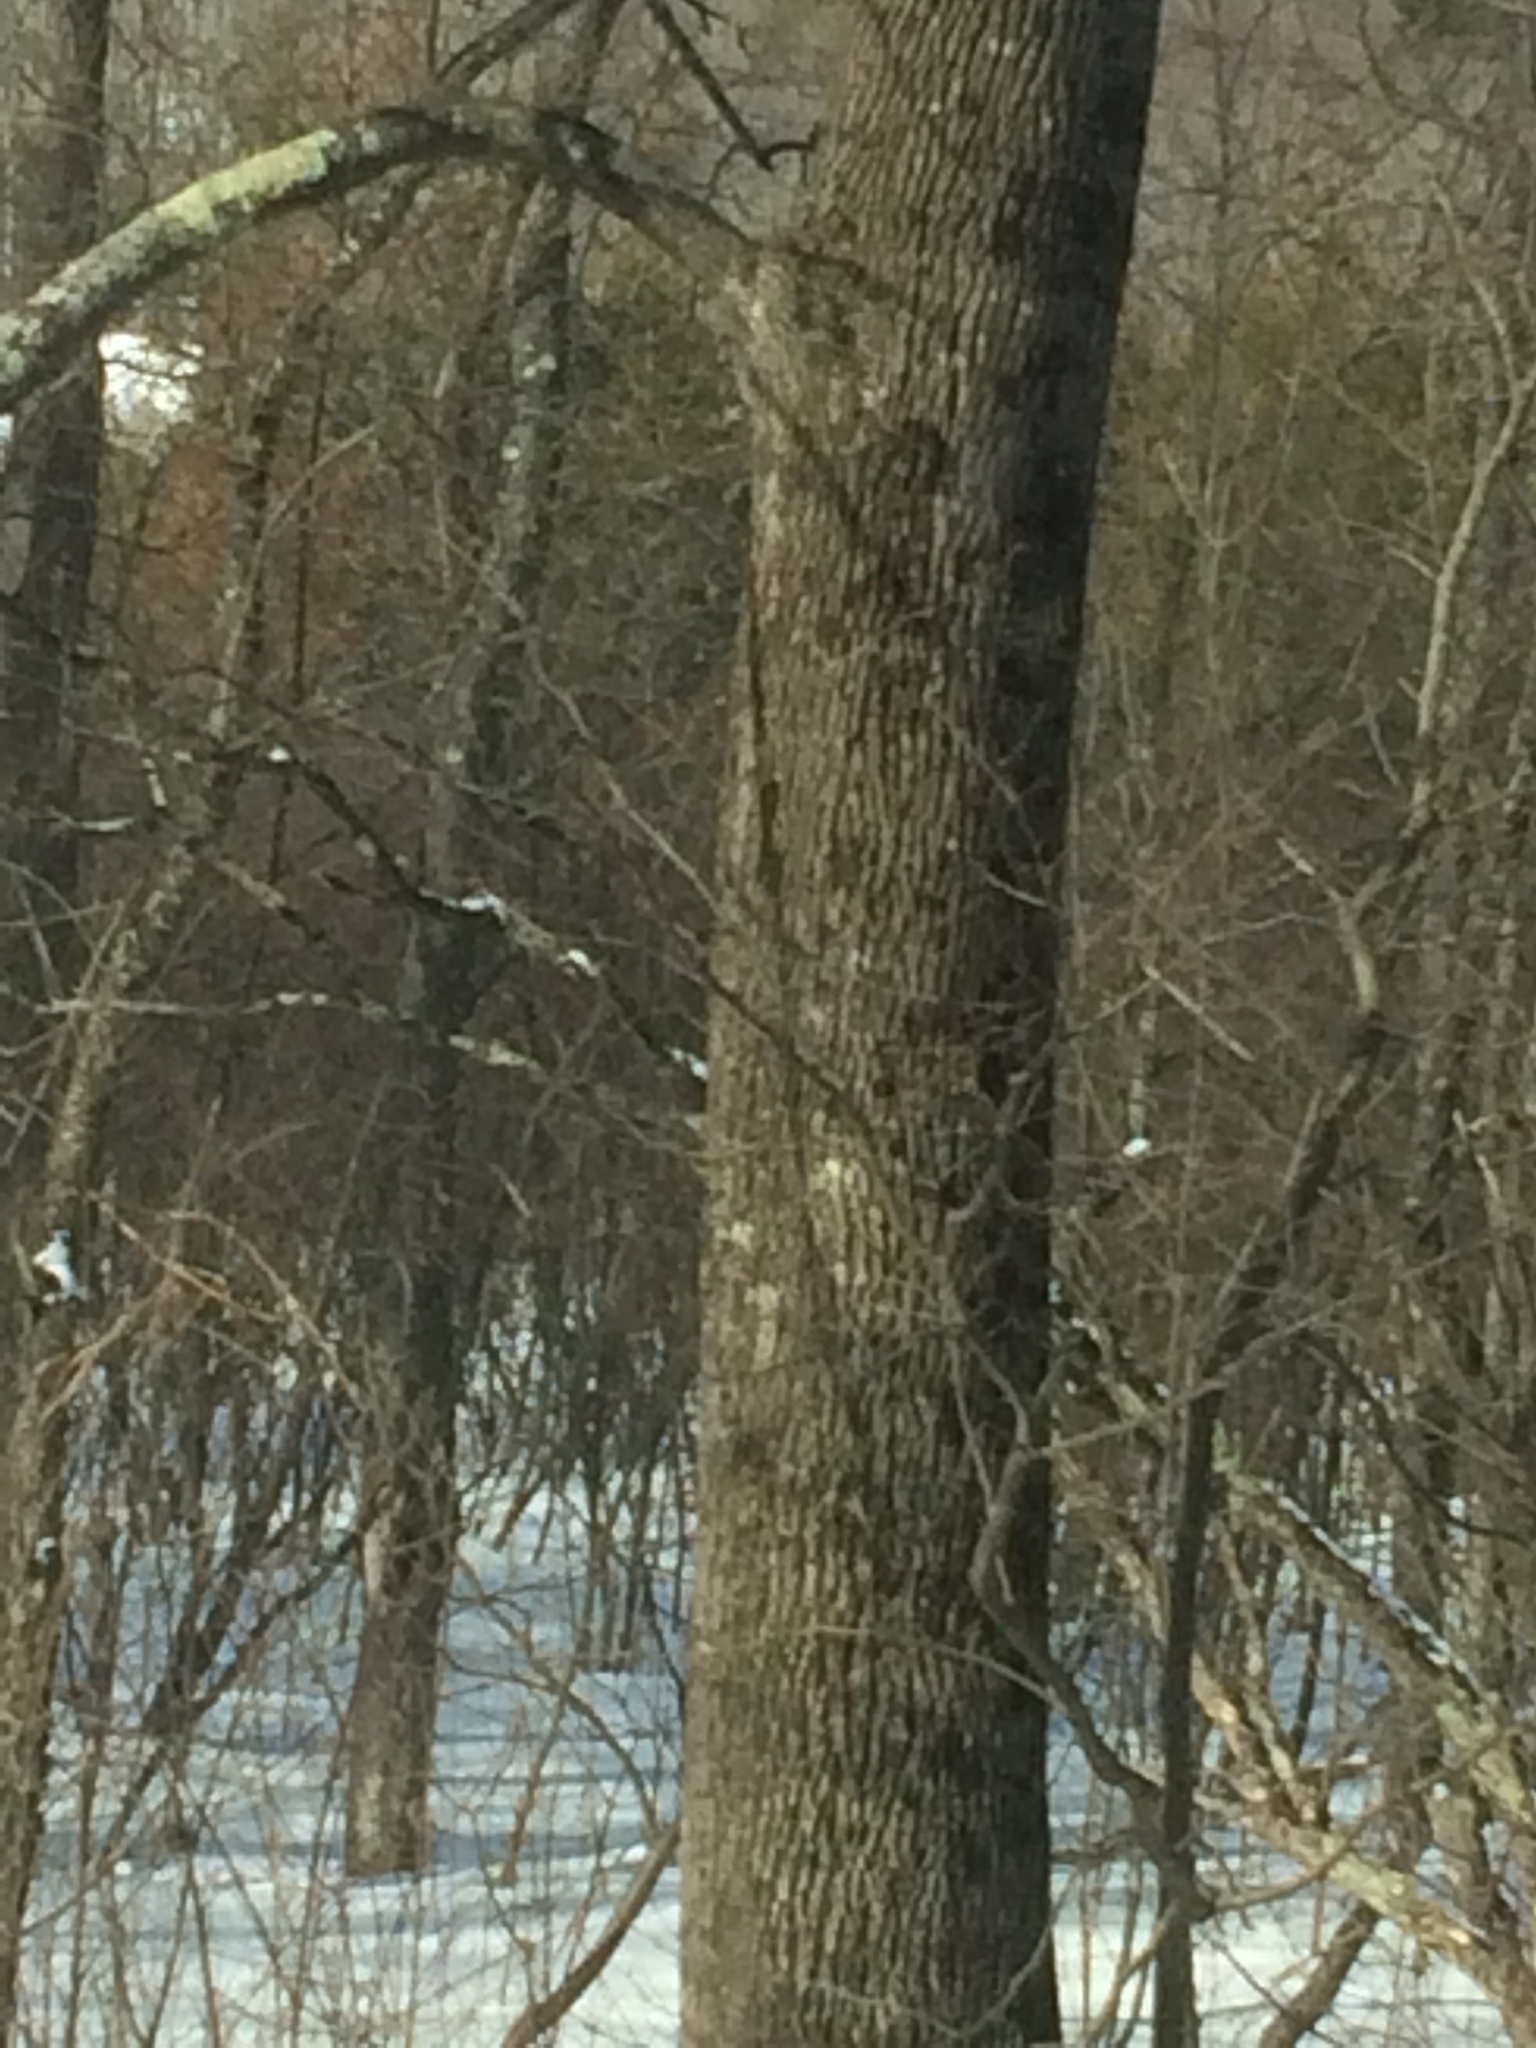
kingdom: Plantae
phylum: Tracheophyta
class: Magnoliopsida
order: Lamiales
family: Oleaceae
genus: Fraxinus
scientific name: Fraxinus americana
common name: White ash
